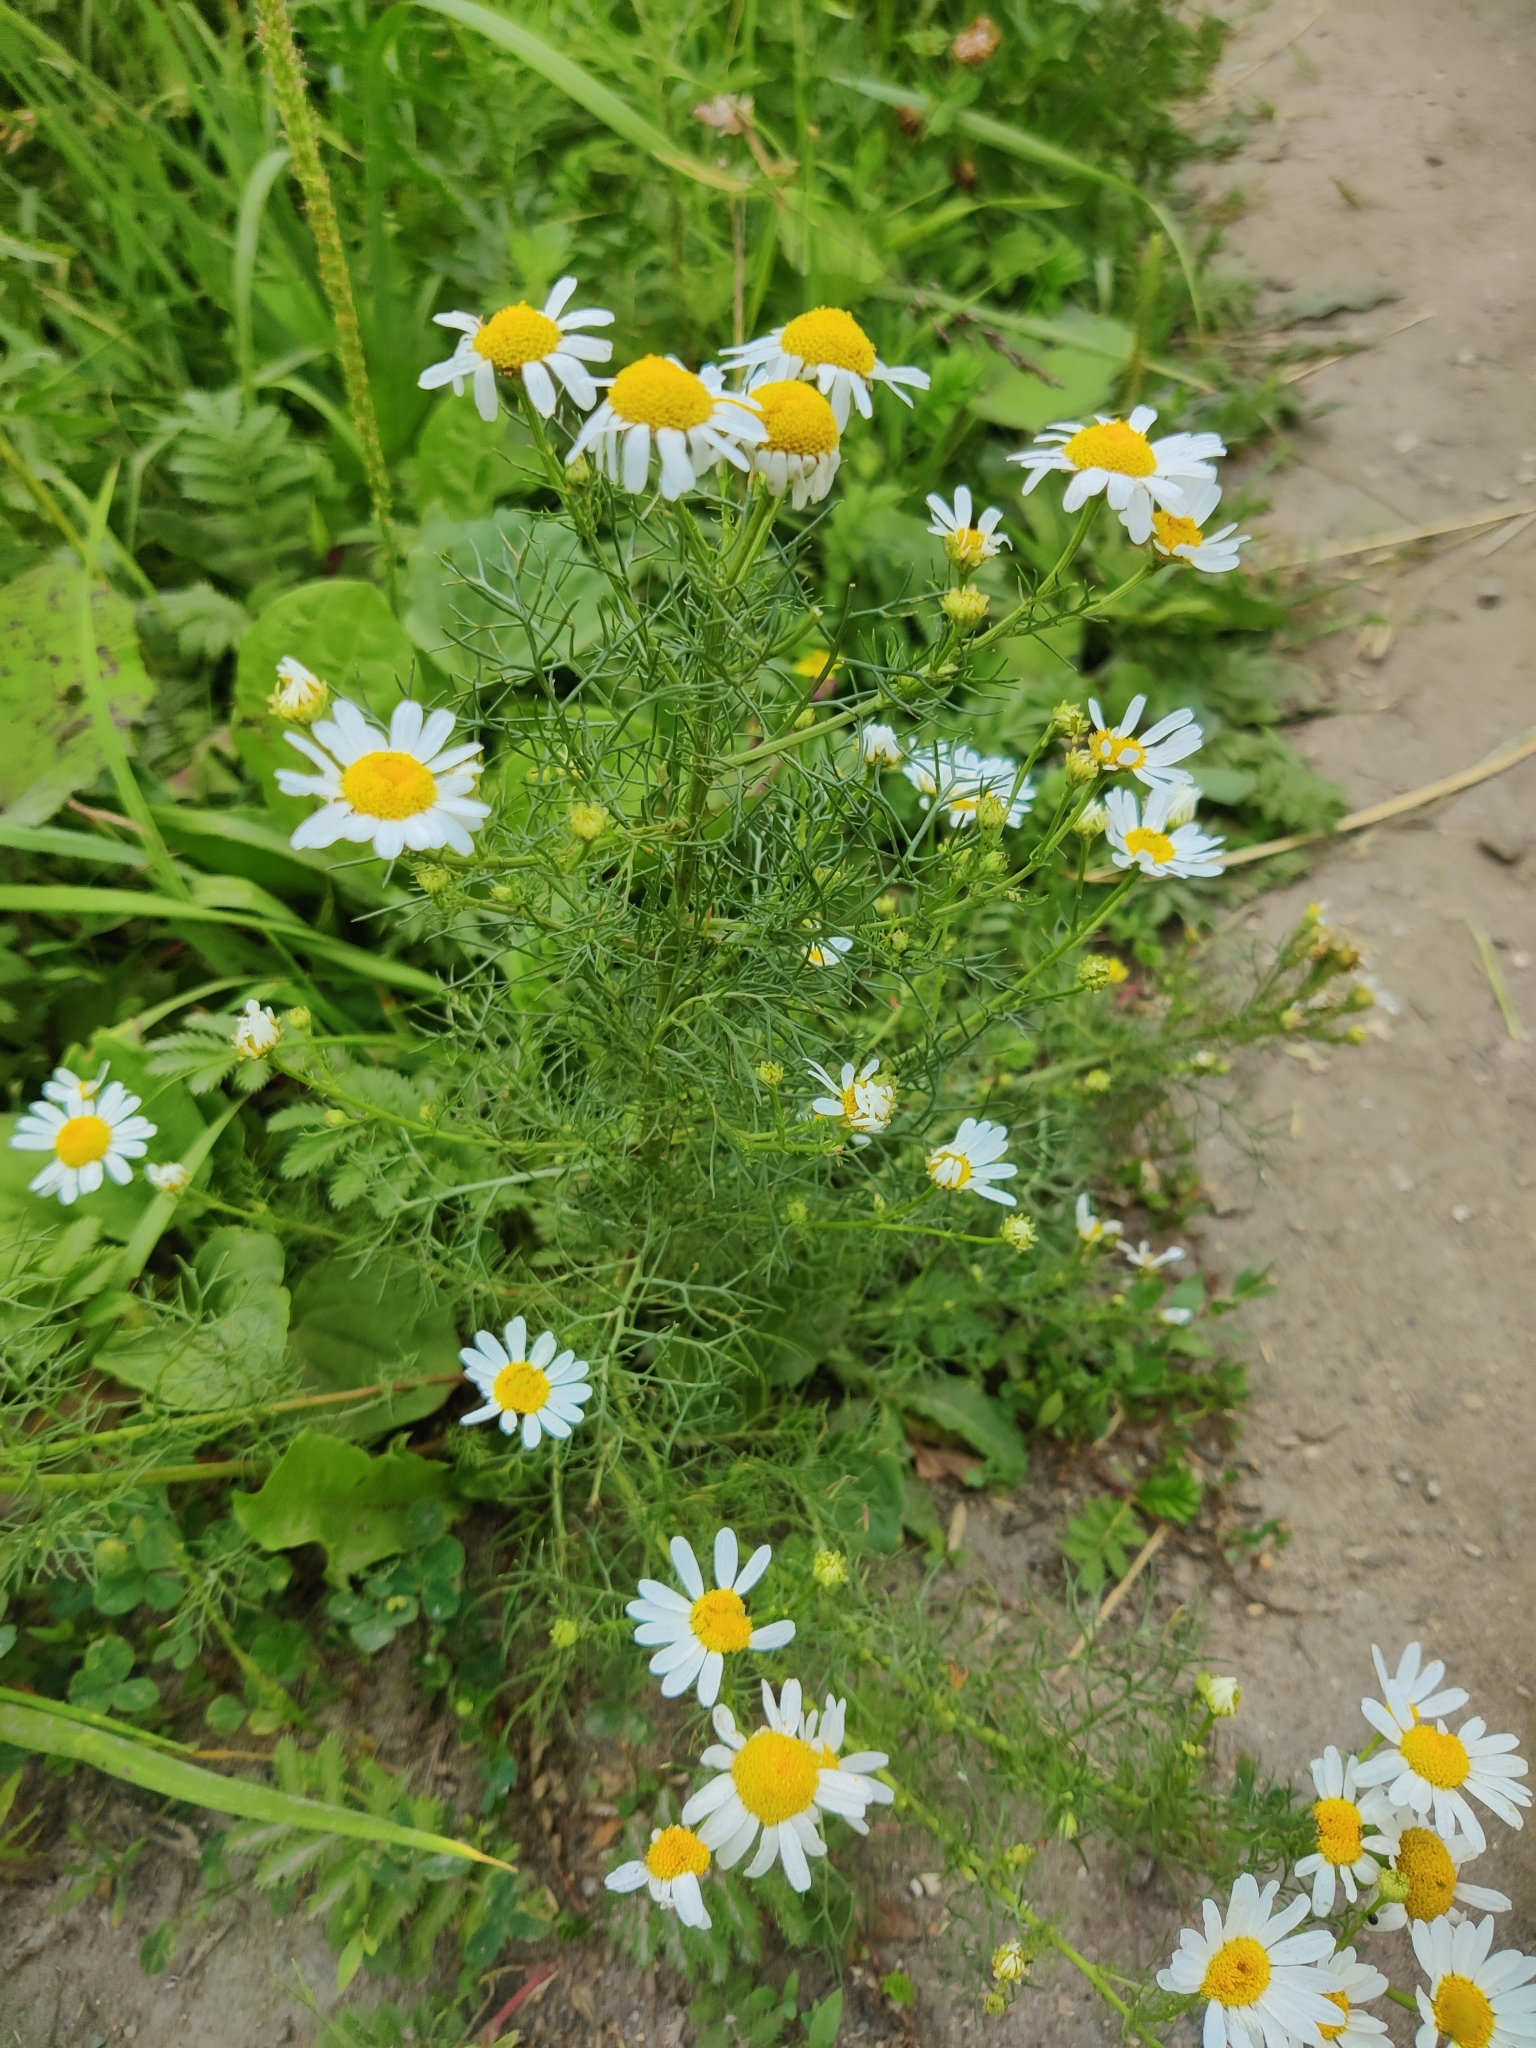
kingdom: Plantae
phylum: Tracheophyta
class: Magnoliopsida
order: Asterales
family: Asteraceae
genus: Tripleurospermum
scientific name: Tripleurospermum inodorum
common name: Scentless mayweed
